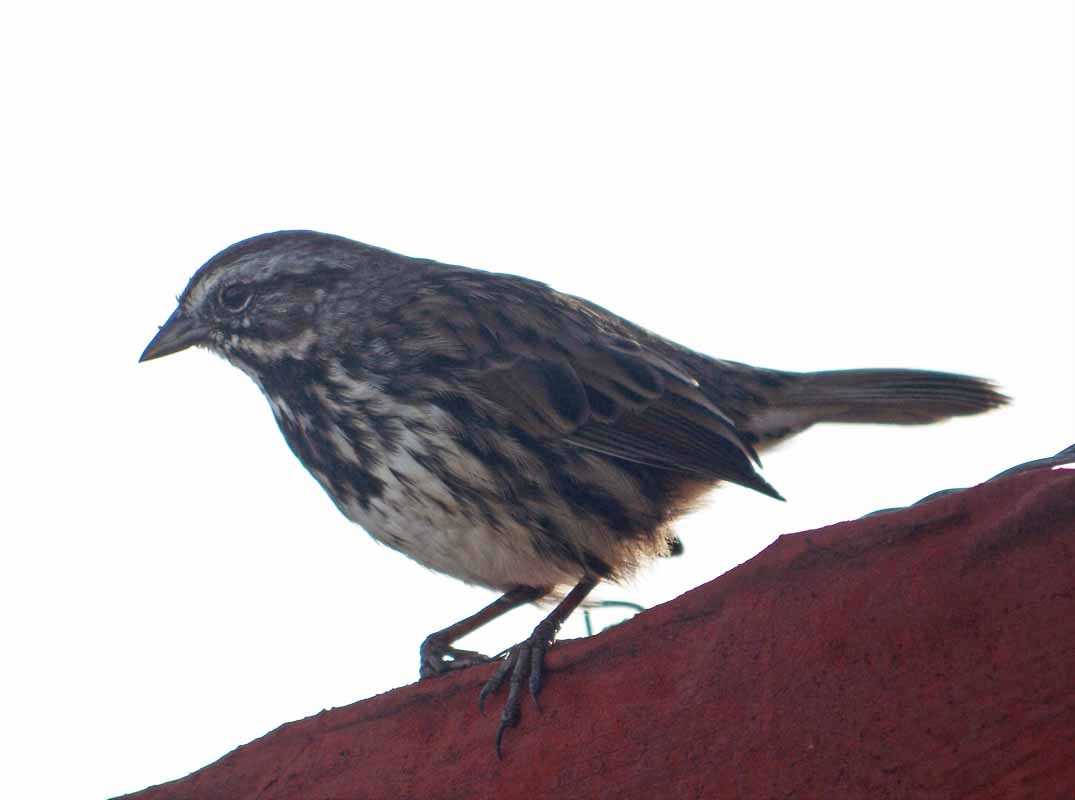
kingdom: Animalia
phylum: Chordata
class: Aves
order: Passeriformes
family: Passerellidae
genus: Melospiza
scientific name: Melospiza melodia
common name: Song sparrow
